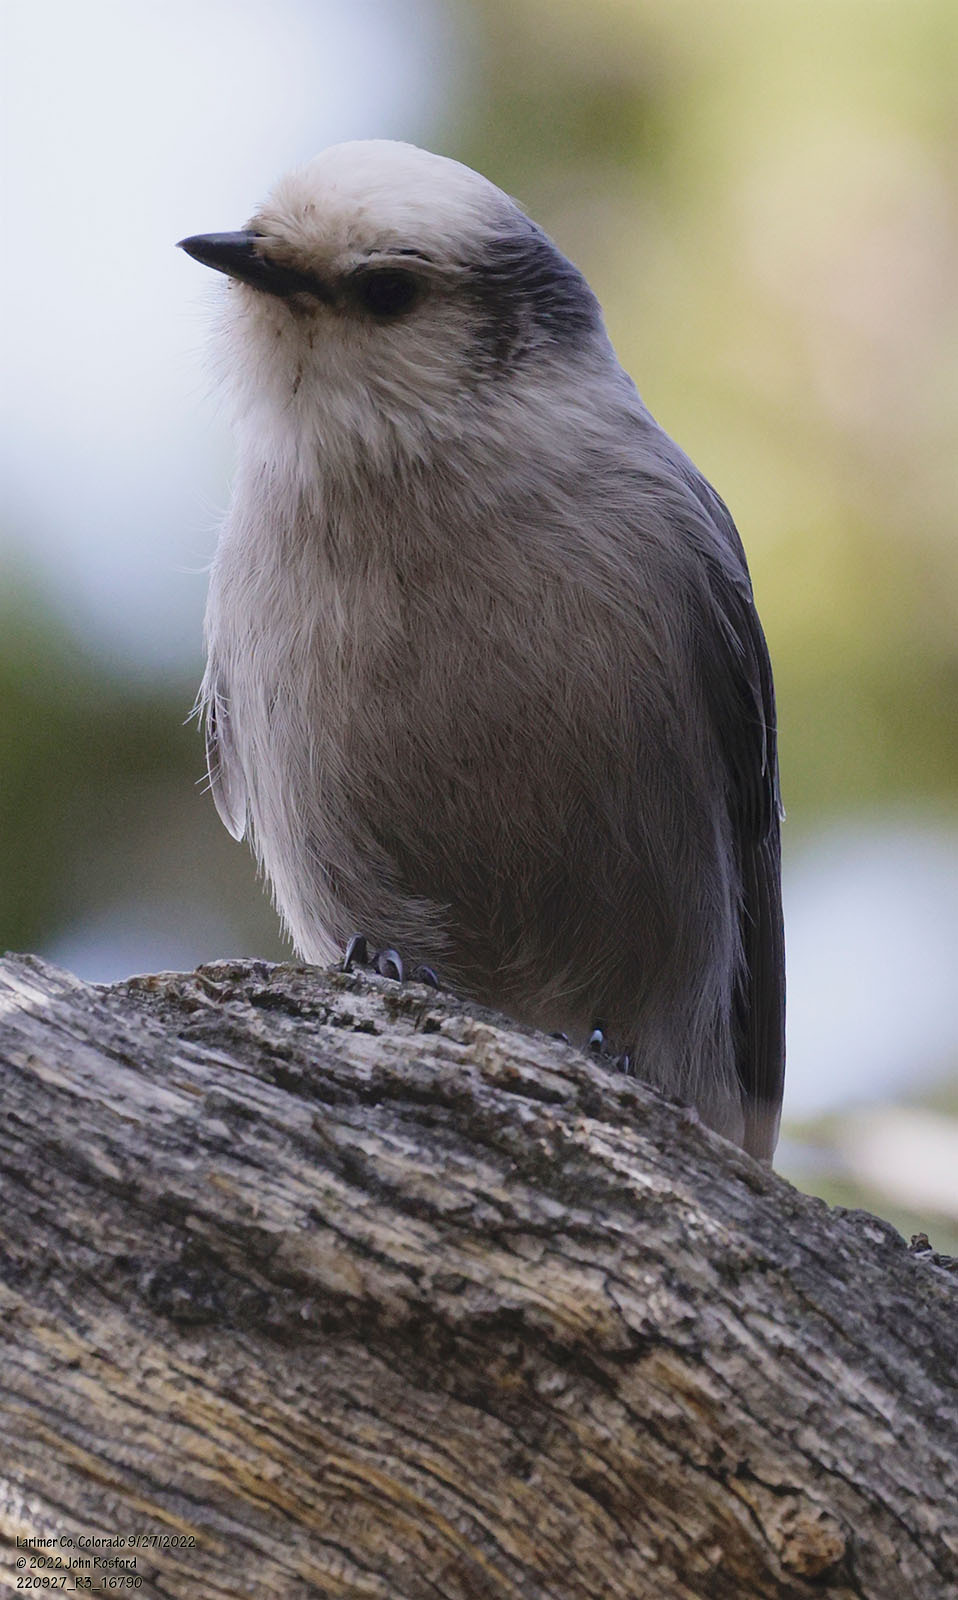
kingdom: Animalia
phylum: Chordata
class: Aves
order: Passeriformes
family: Corvidae
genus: Perisoreus
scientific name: Perisoreus canadensis
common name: Gray jay
